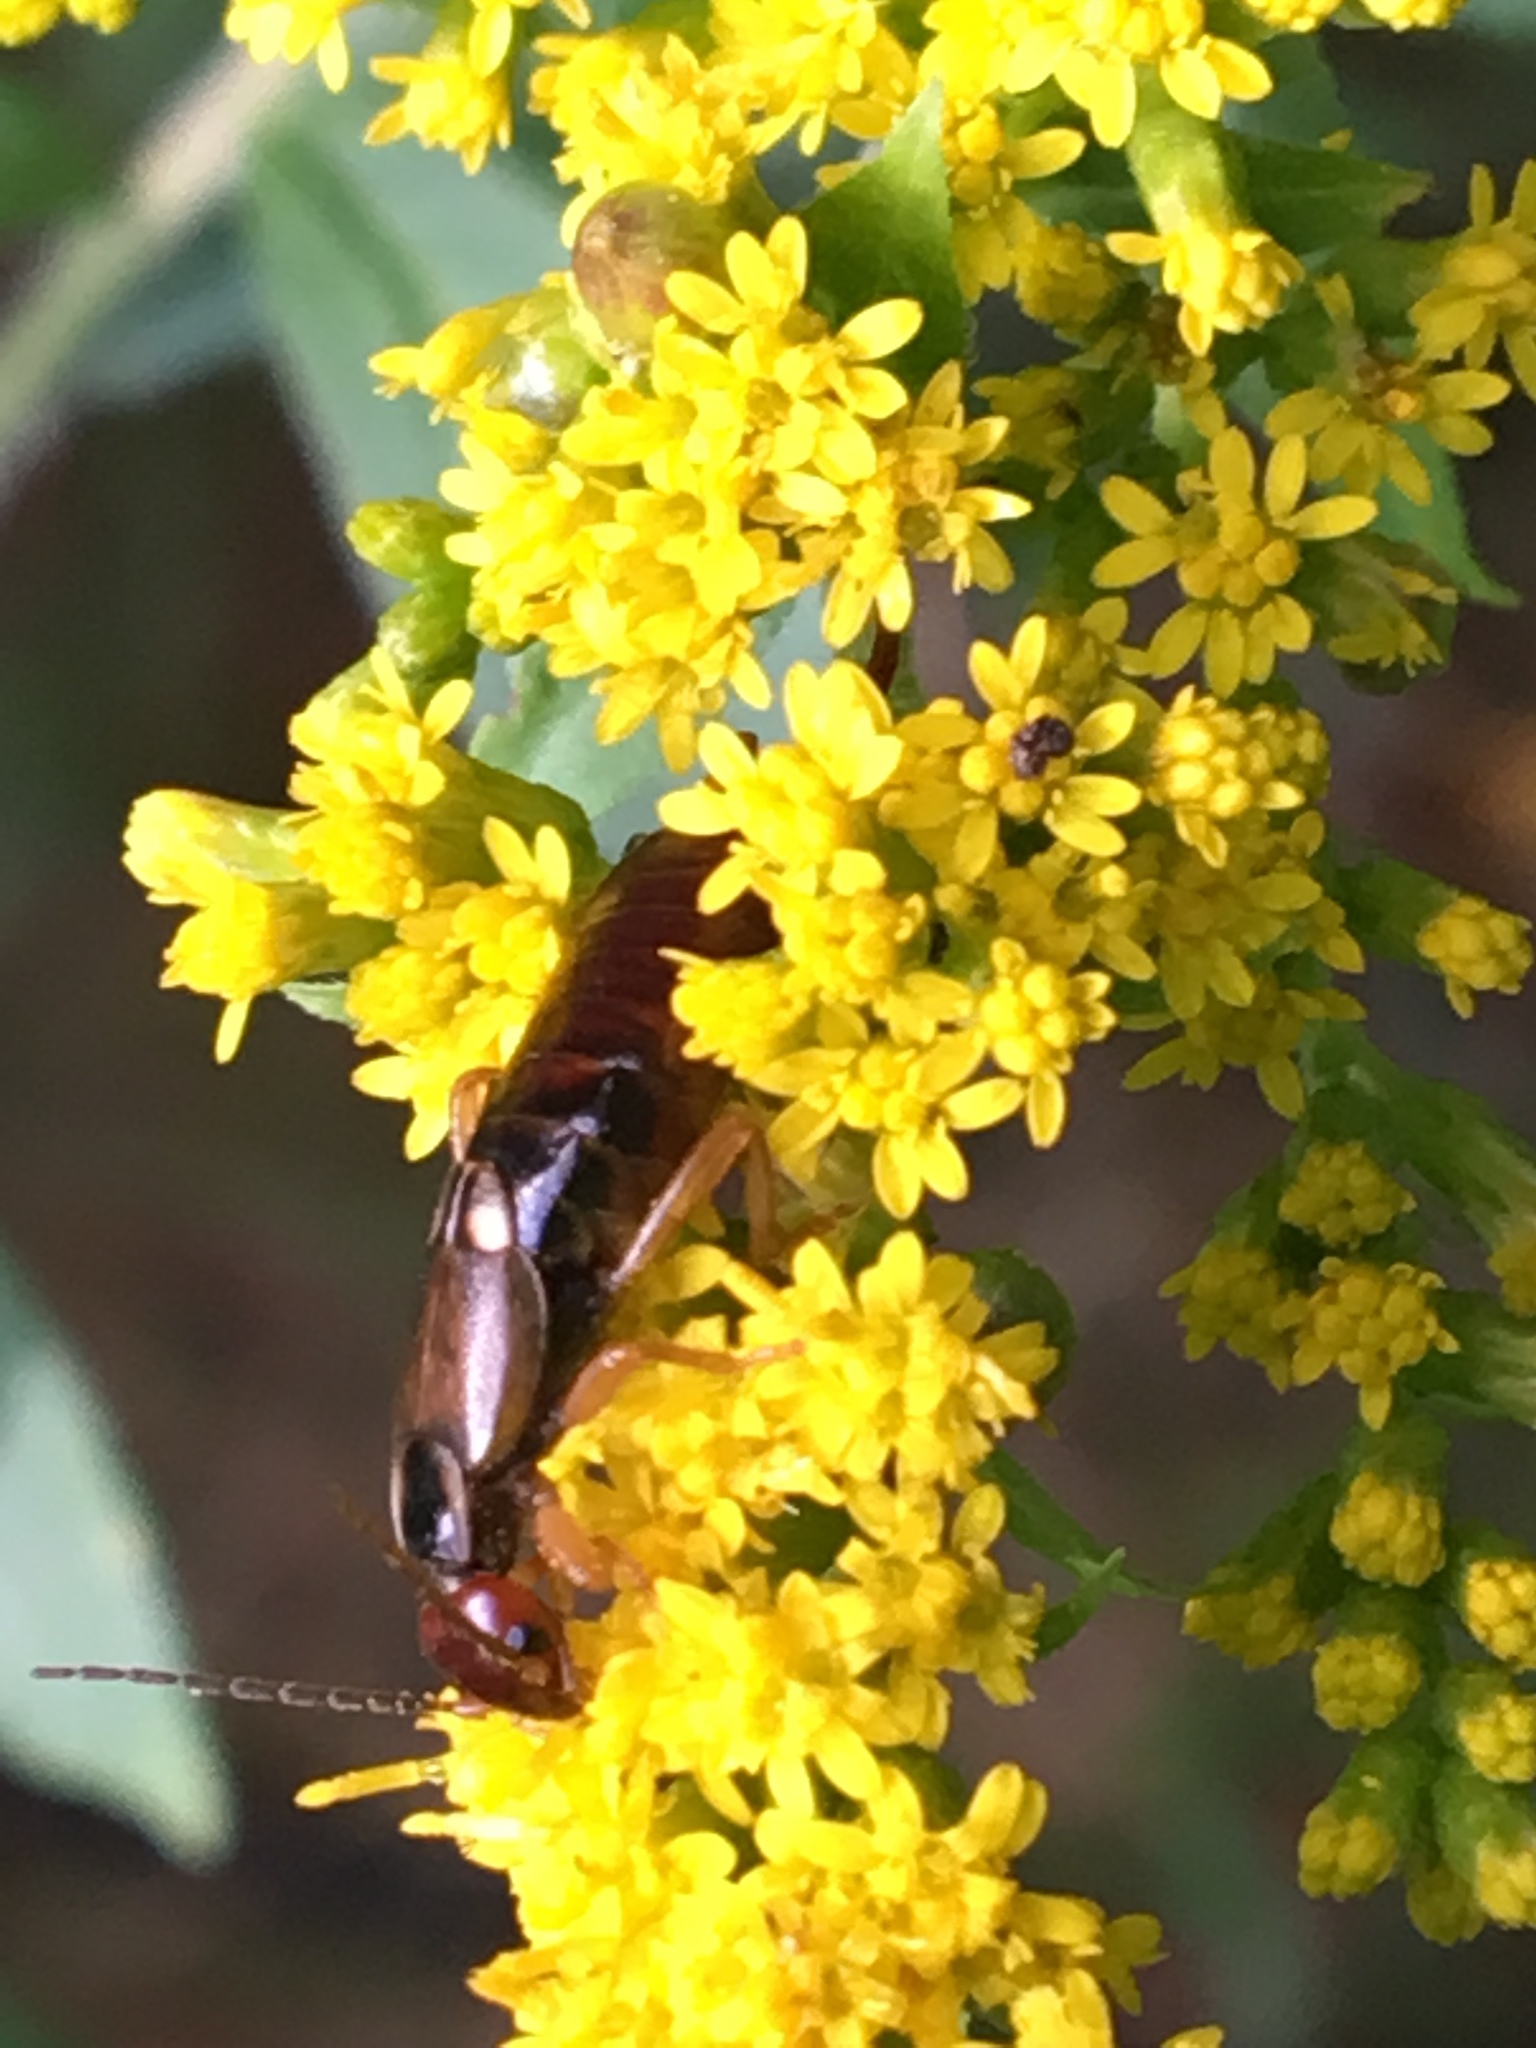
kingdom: Animalia
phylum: Arthropoda
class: Insecta
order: Dermaptera
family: Forficulidae
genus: Forficula
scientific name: Forficula
